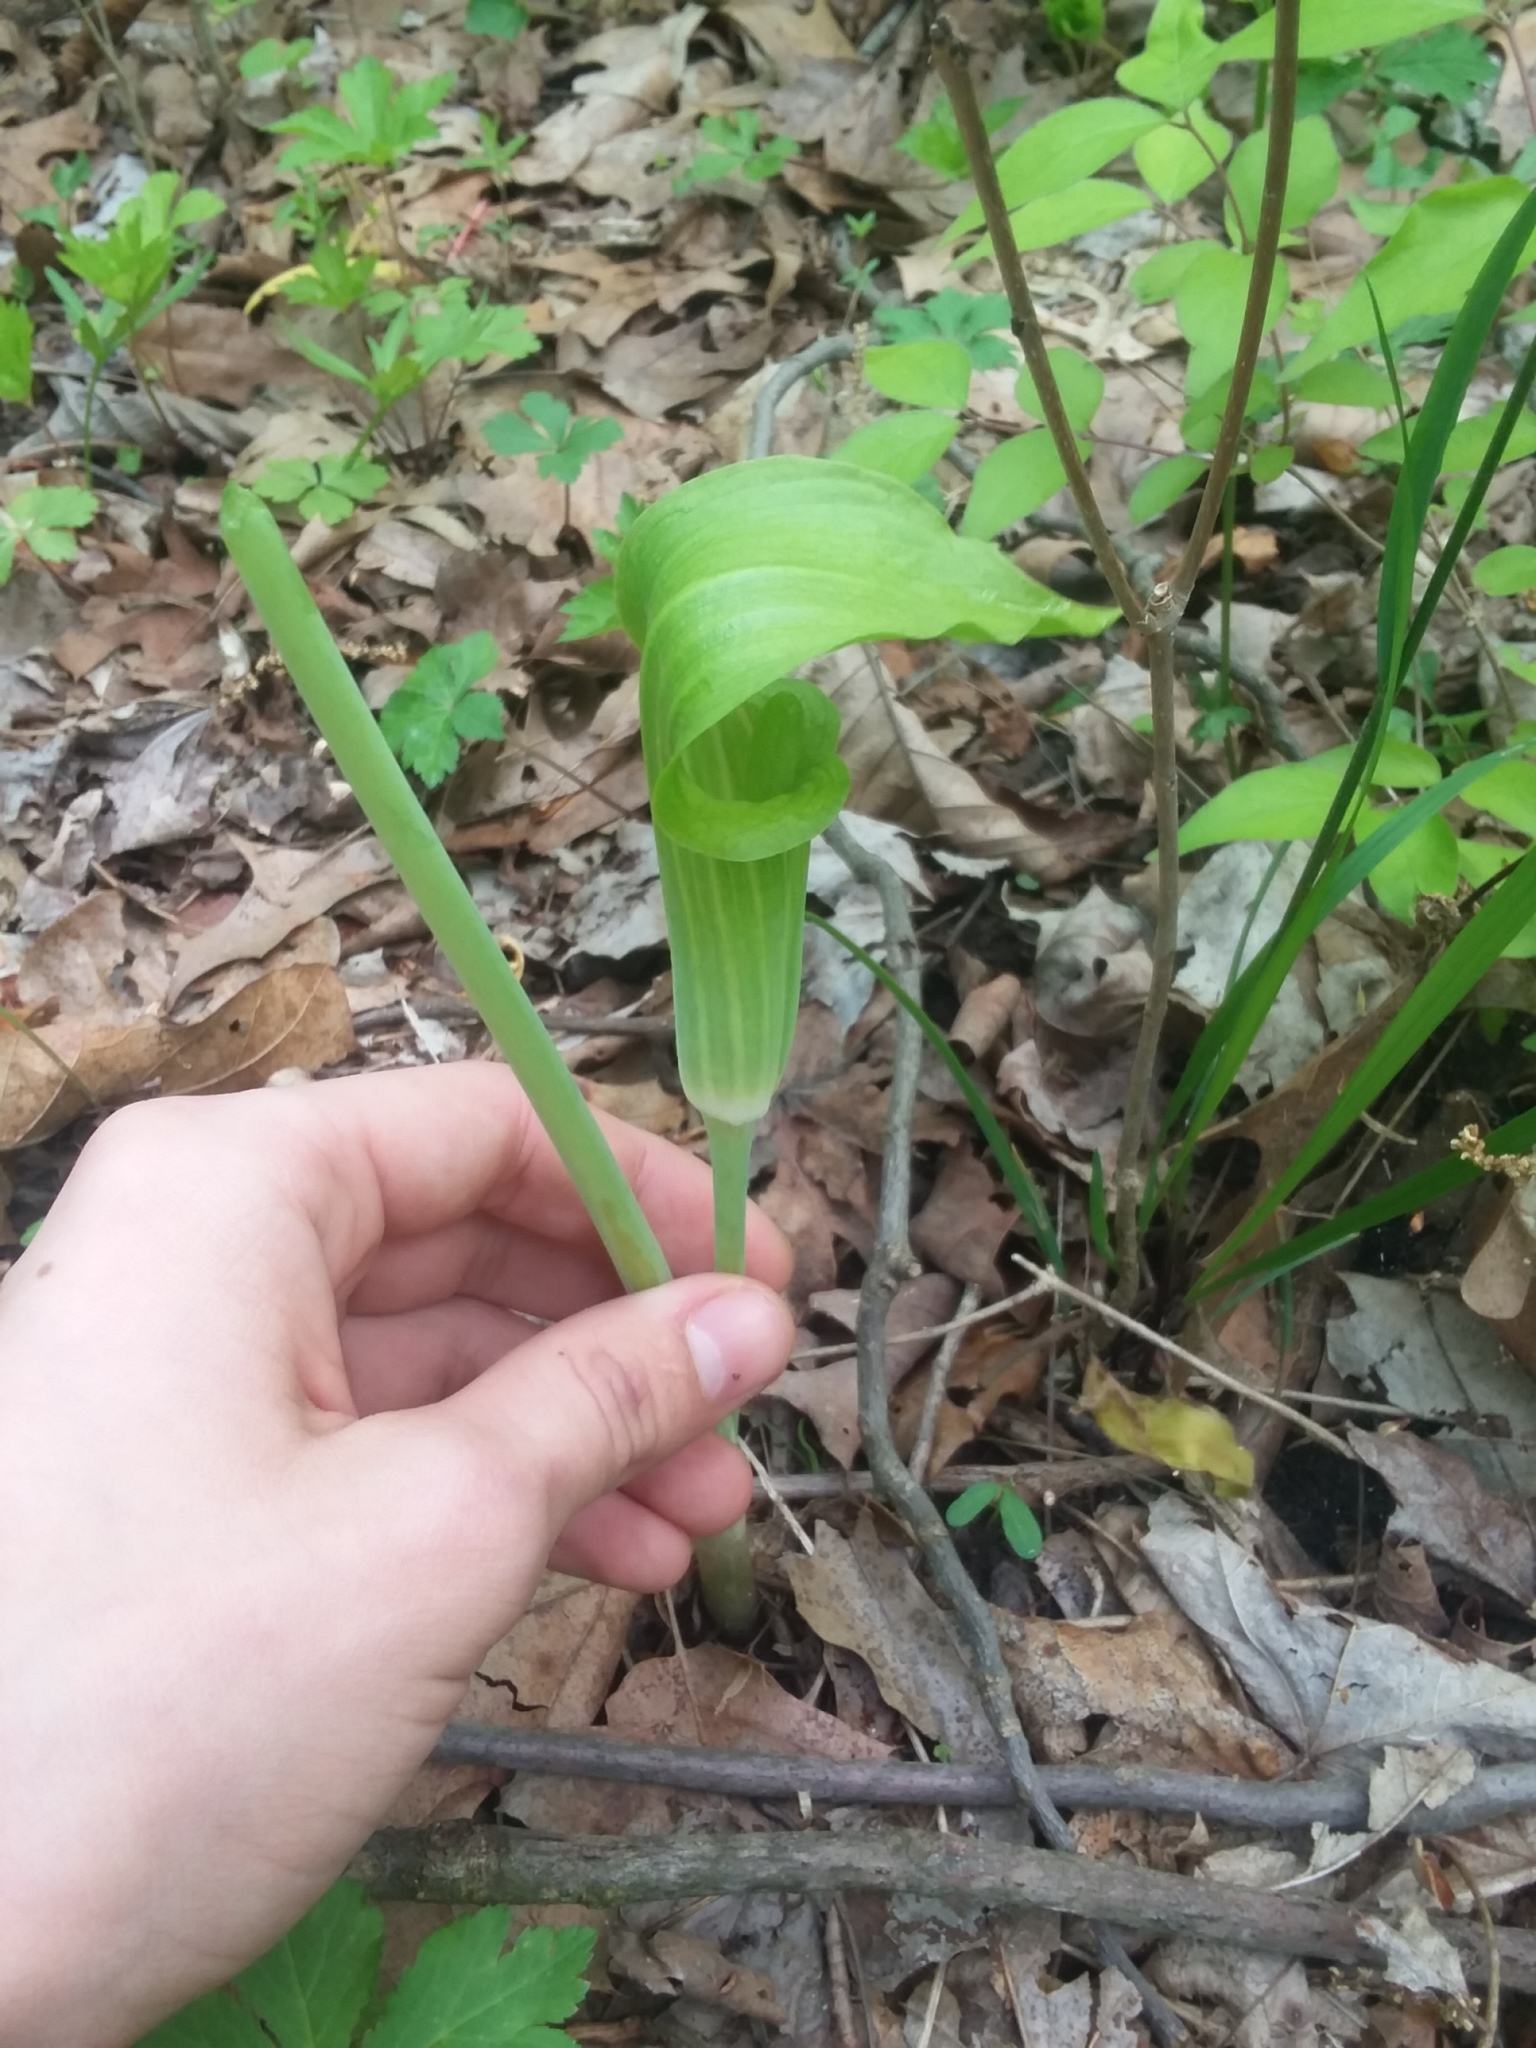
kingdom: Plantae
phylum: Tracheophyta
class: Liliopsida
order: Alismatales
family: Araceae
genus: Arisaema
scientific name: Arisaema triphyllum
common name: Jack-in-the-pulpit
